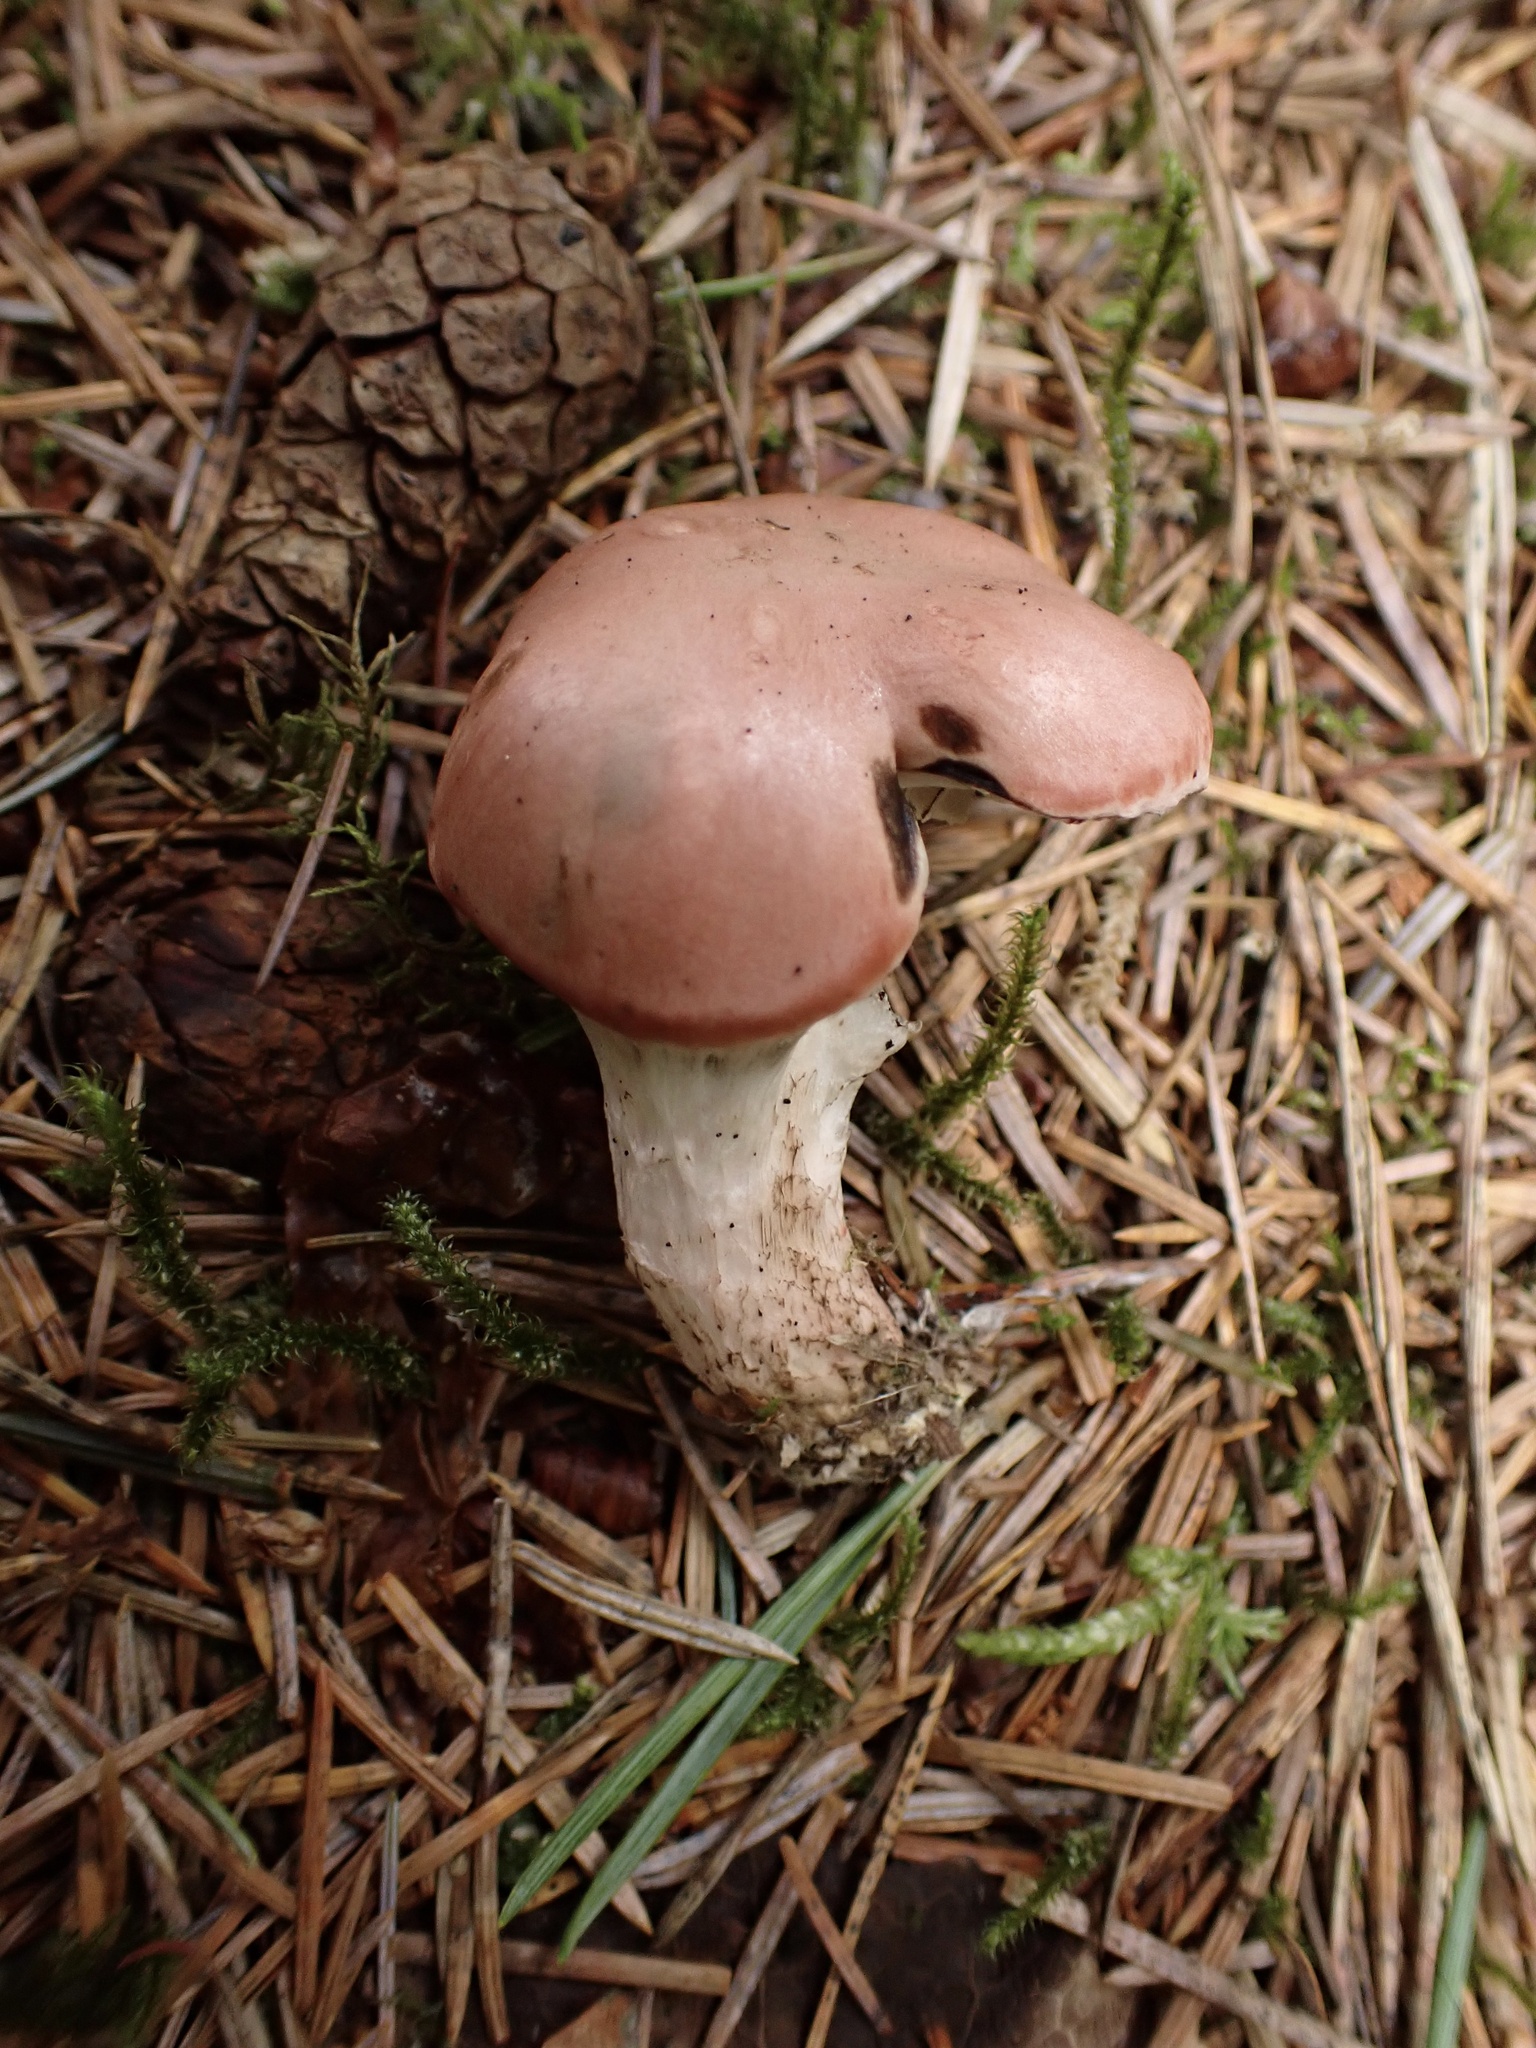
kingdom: Fungi
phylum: Basidiomycota
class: Agaricomycetes
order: Boletales
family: Gomphidiaceae
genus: Gomphidius
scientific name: Gomphidius roseus
